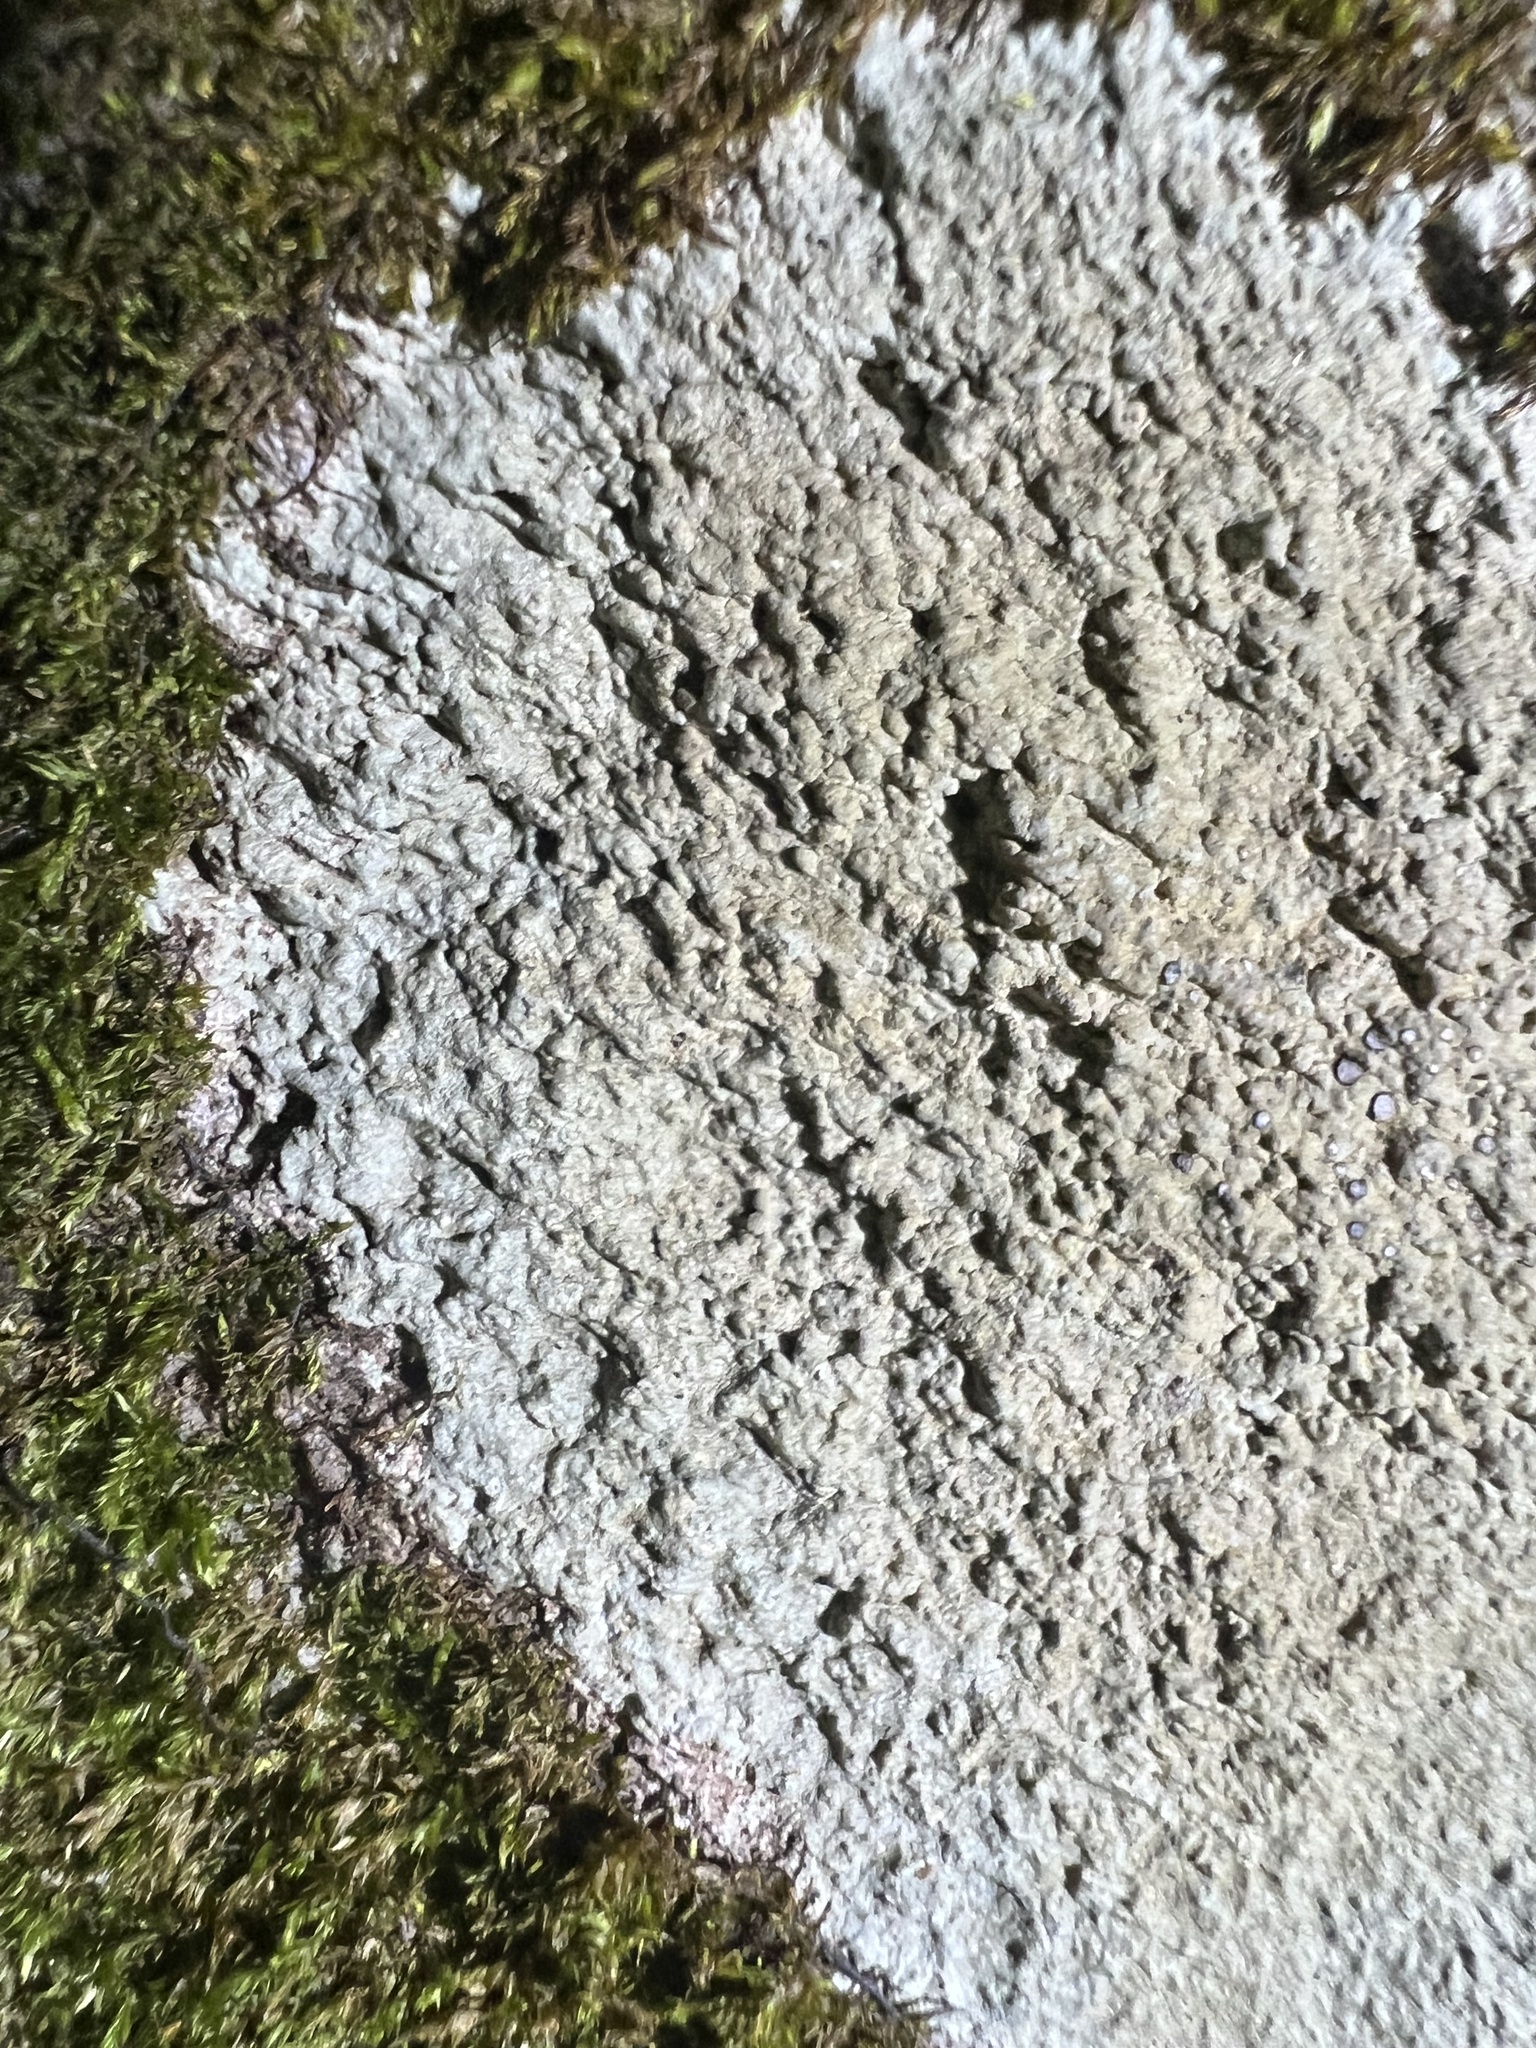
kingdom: Fungi
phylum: Ascomycota
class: Lecanoromycetes
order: Lecideales
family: Lecideaceae
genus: Porpidia
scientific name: Porpidia albocaerulescens
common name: Smokey-eyed boulder lichen
